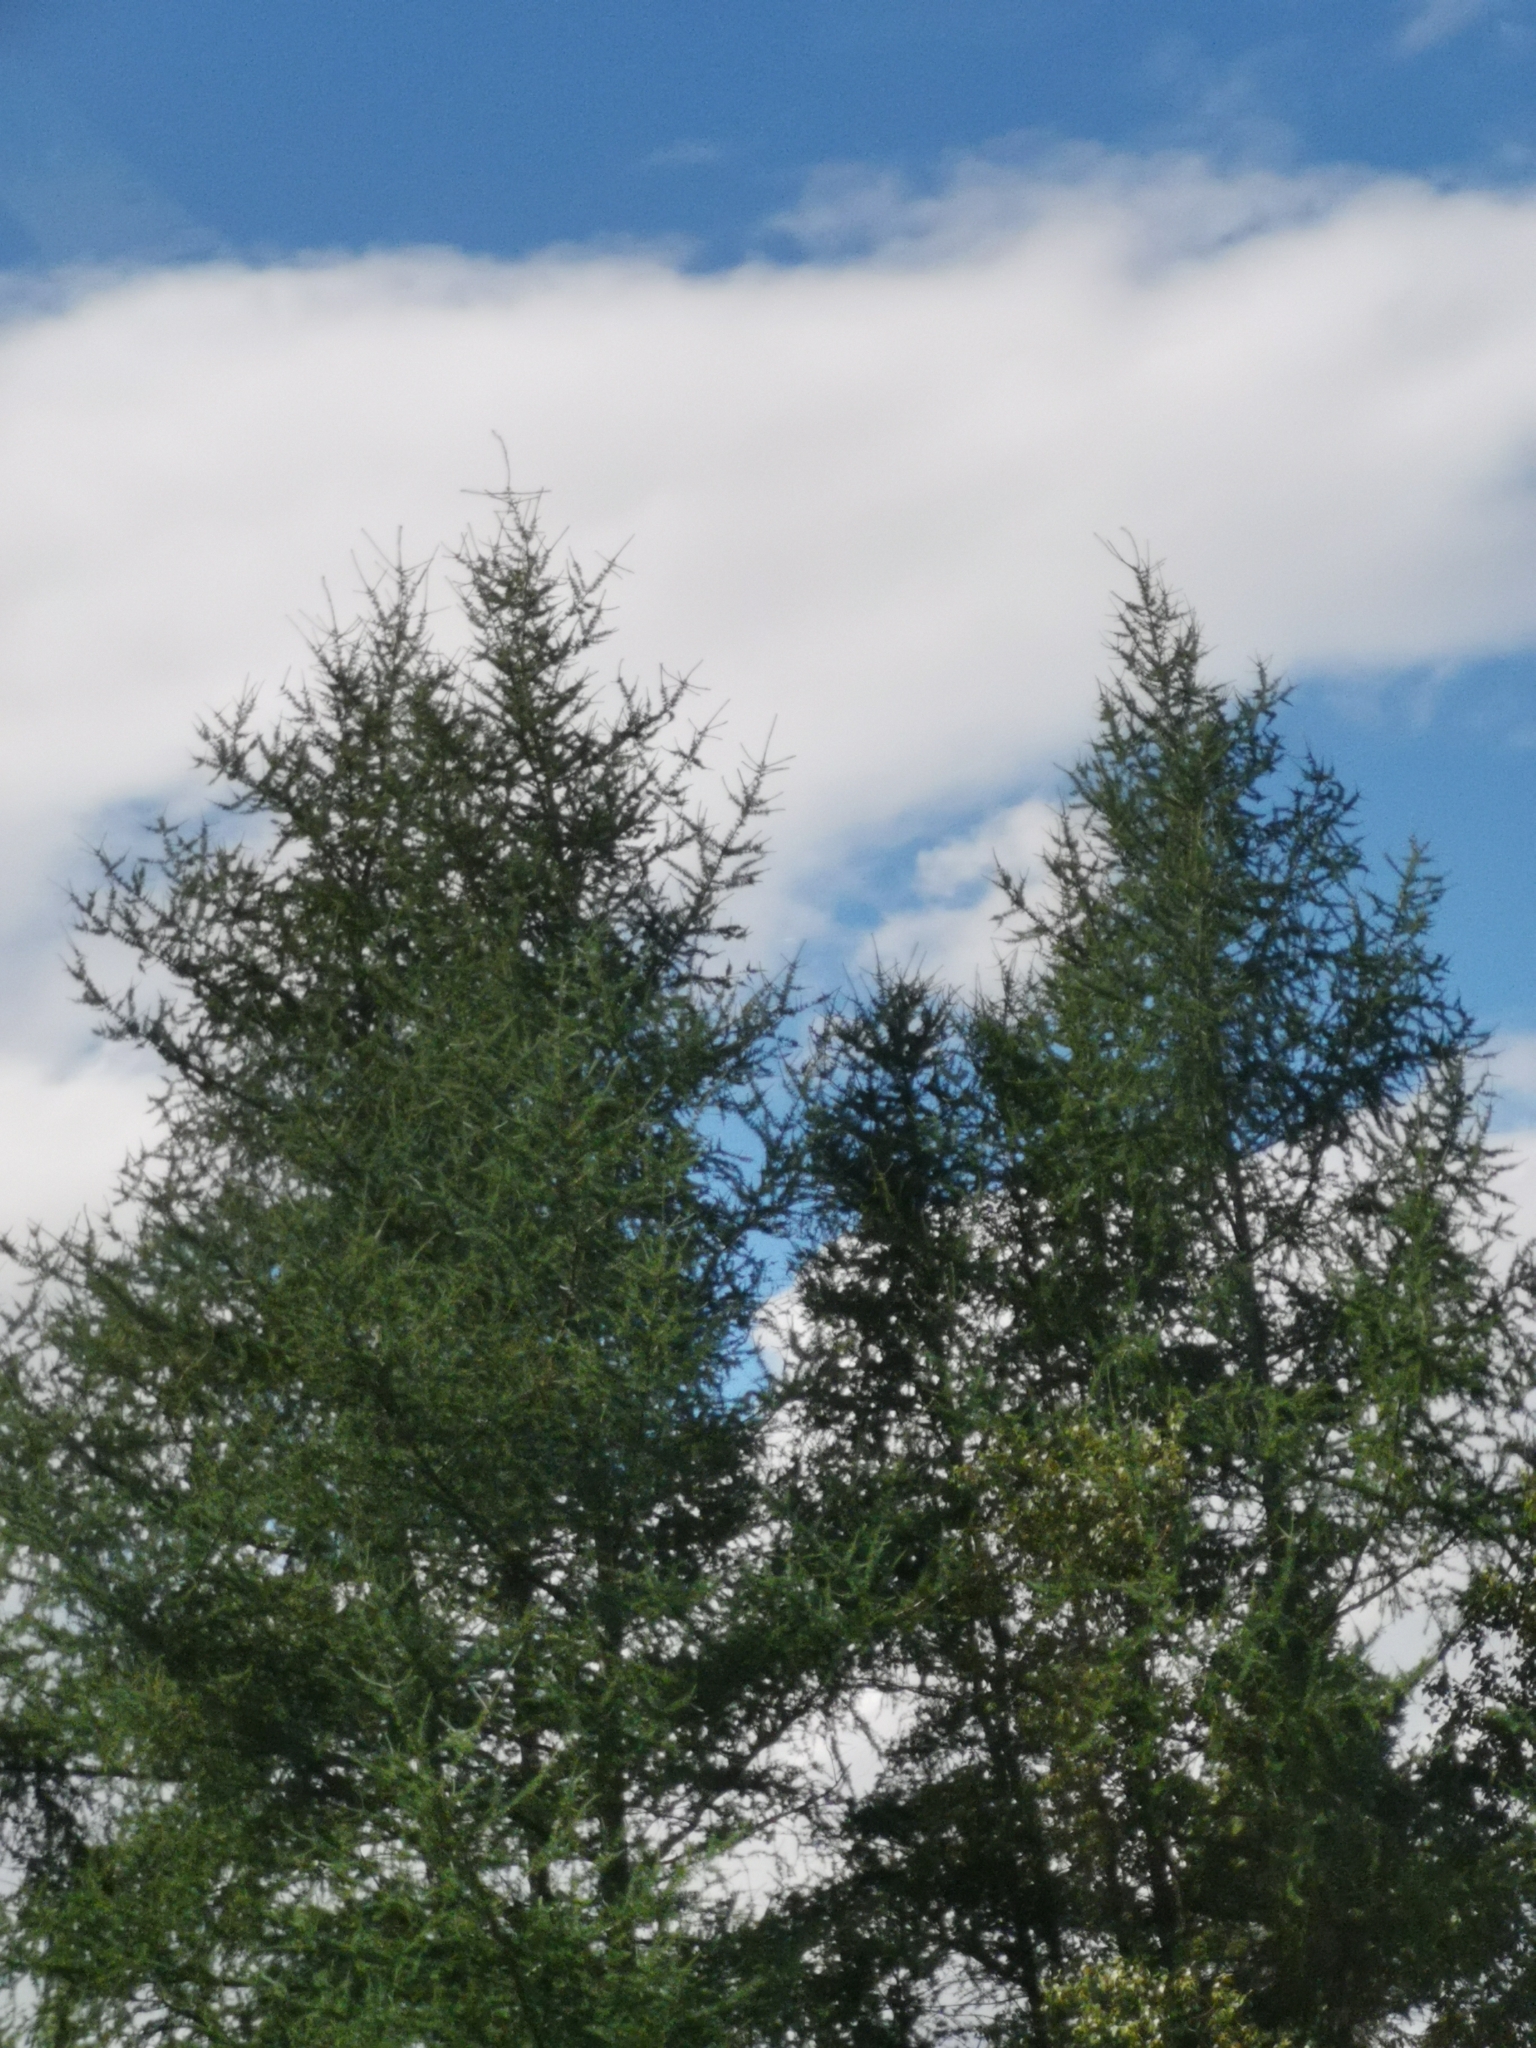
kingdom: Plantae
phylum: Tracheophyta
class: Pinopsida
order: Pinales
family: Pinaceae
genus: Larix
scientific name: Larix laricina
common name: American larch
